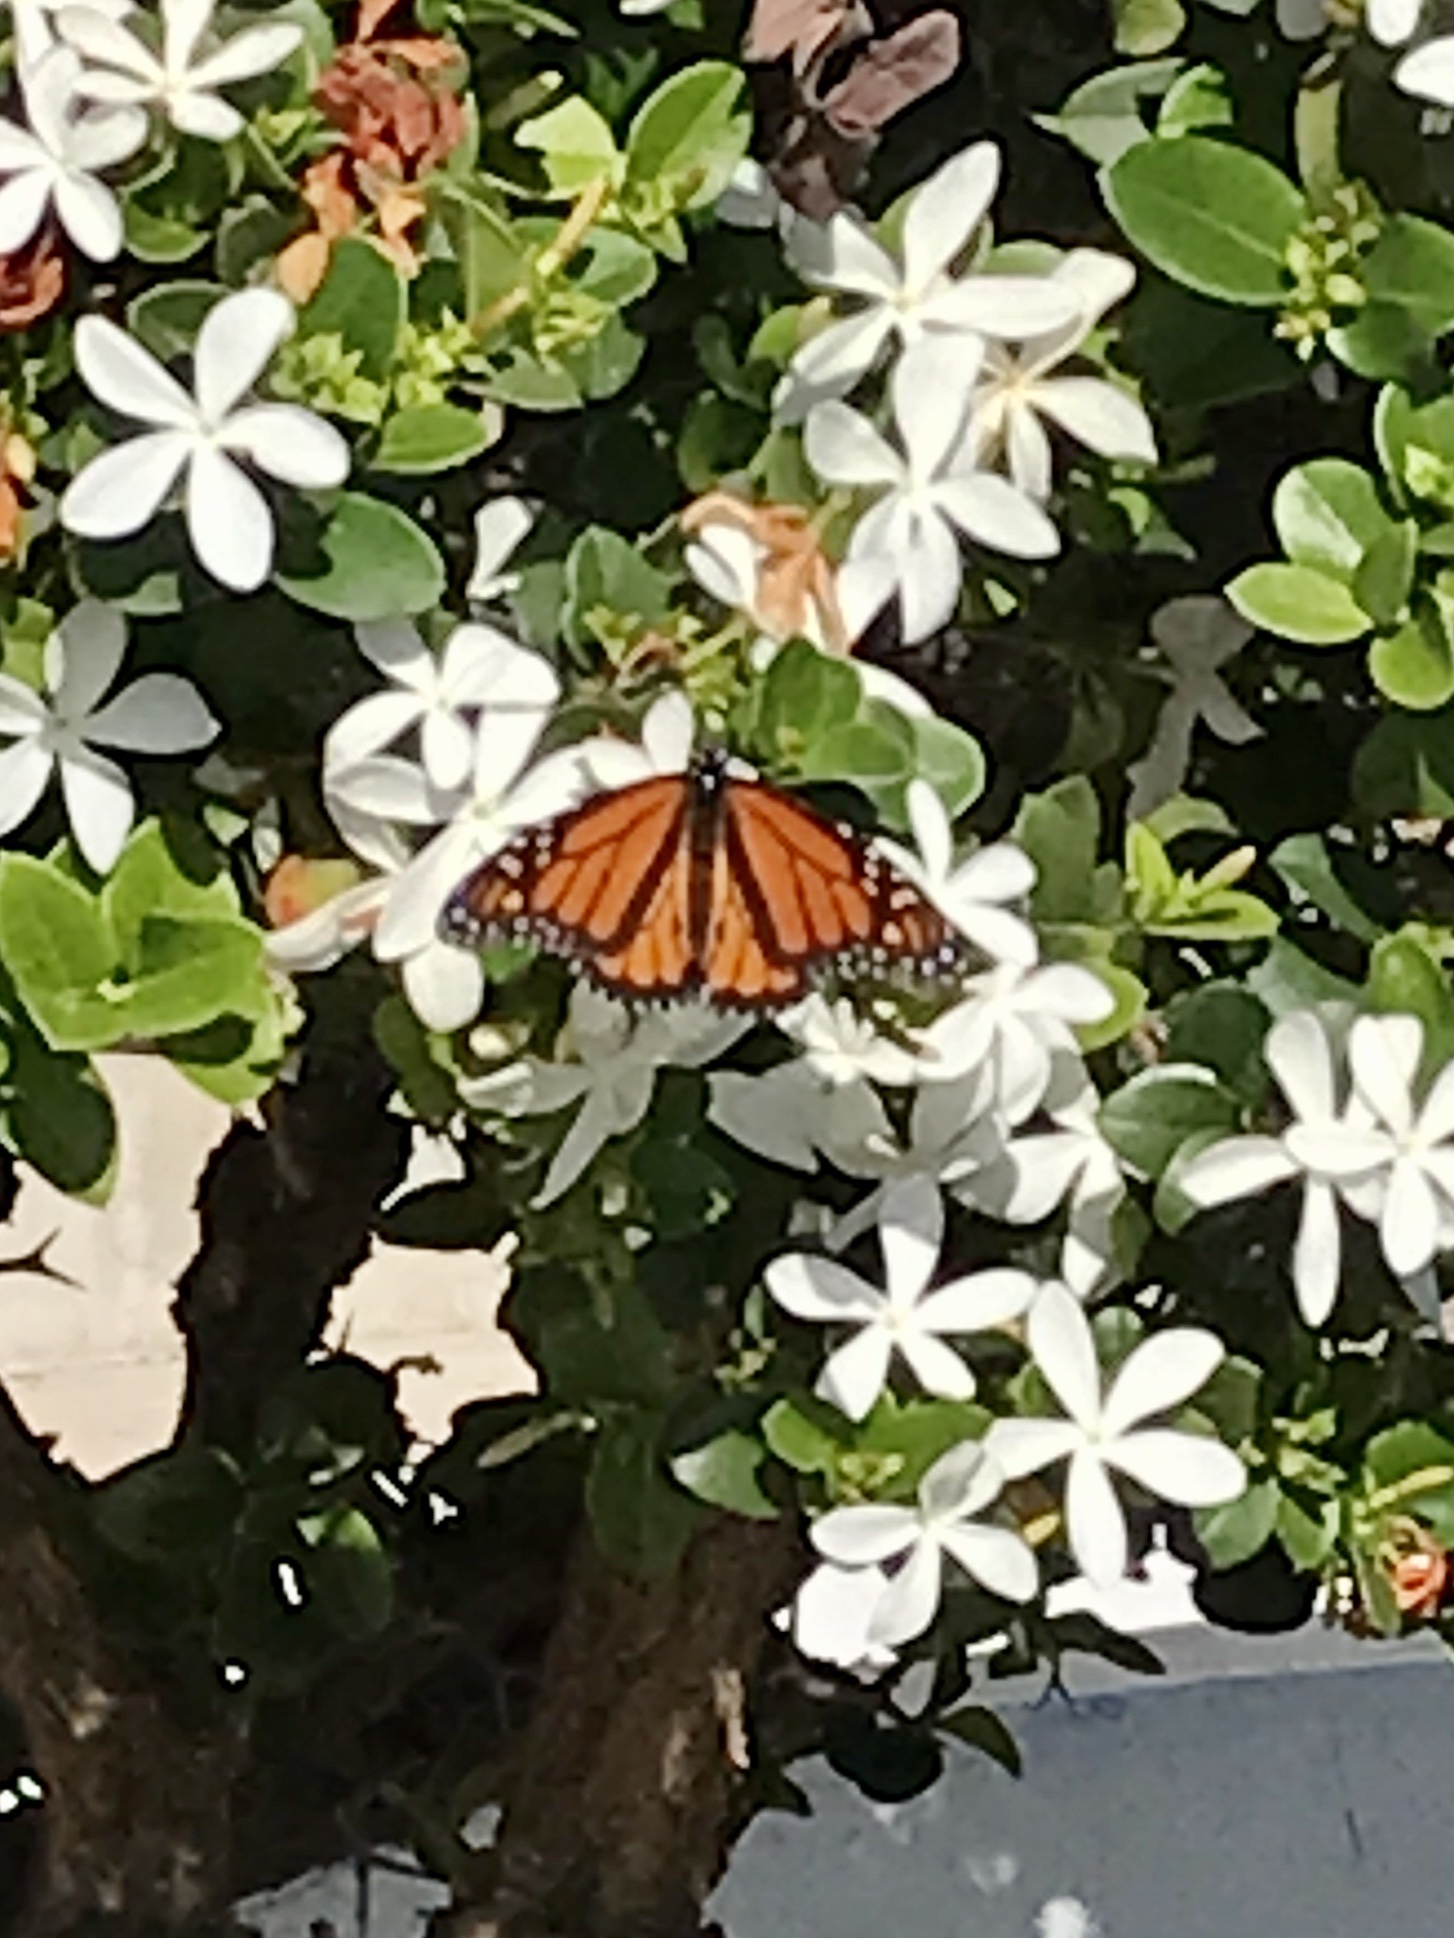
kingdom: Animalia
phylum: Arthropoda
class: Insecta
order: Lepidoptera
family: Nymphalidae
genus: Danaus
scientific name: Danaus plexippus
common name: Monarch
